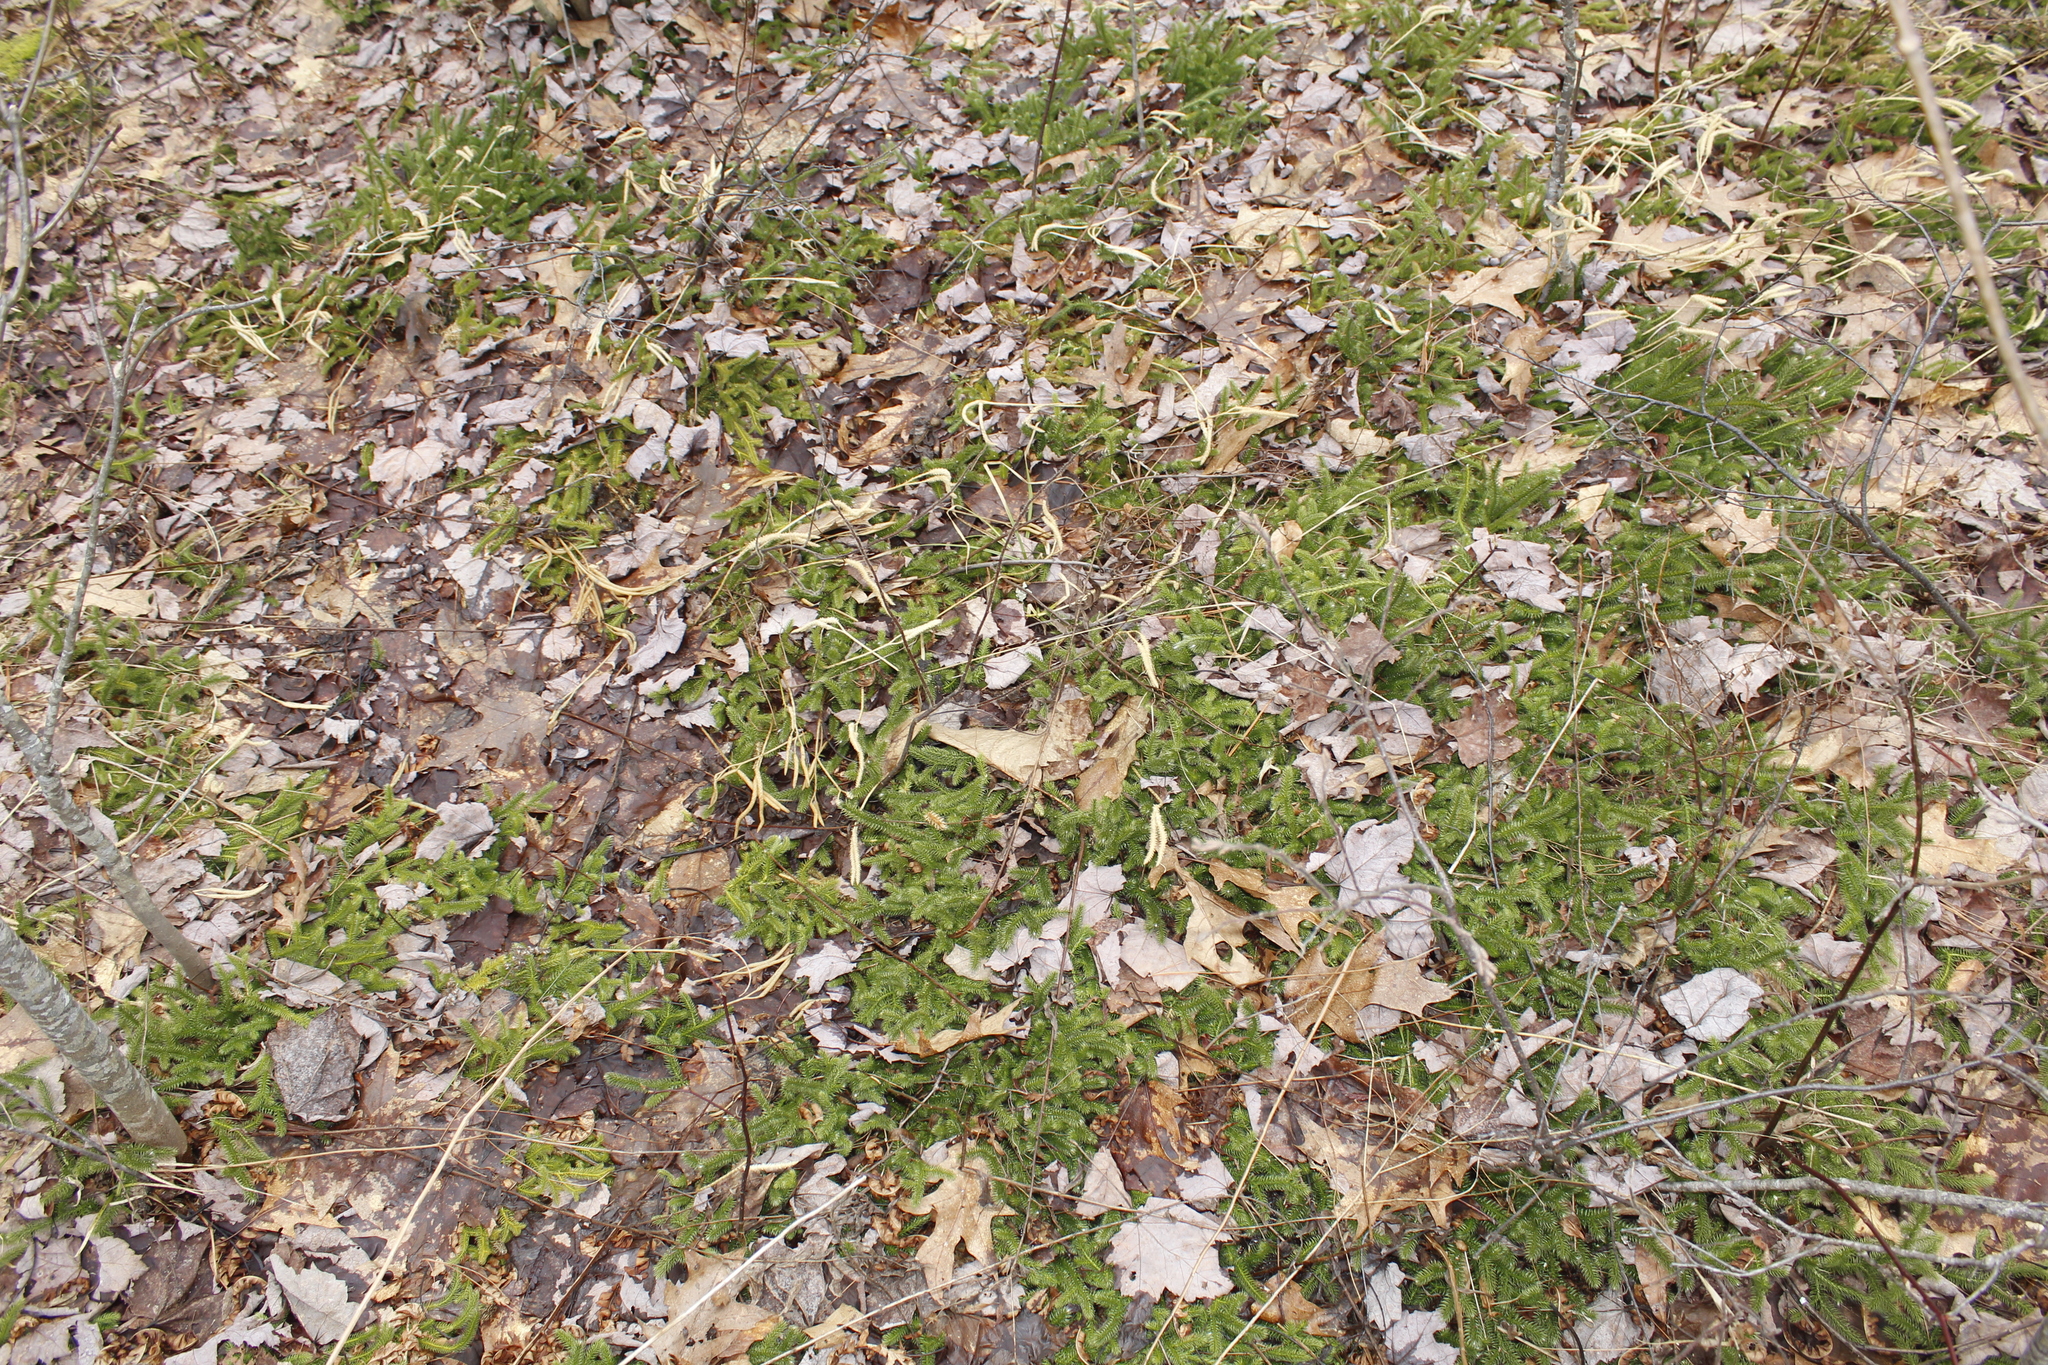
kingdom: Plantae
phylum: Tracheophyta
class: Lycopodiopsida
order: Lycopodiales
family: Lycopodiaceae
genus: Lycopodium
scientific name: Lycopodium clavatum
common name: Stag's-horn clubmoss
